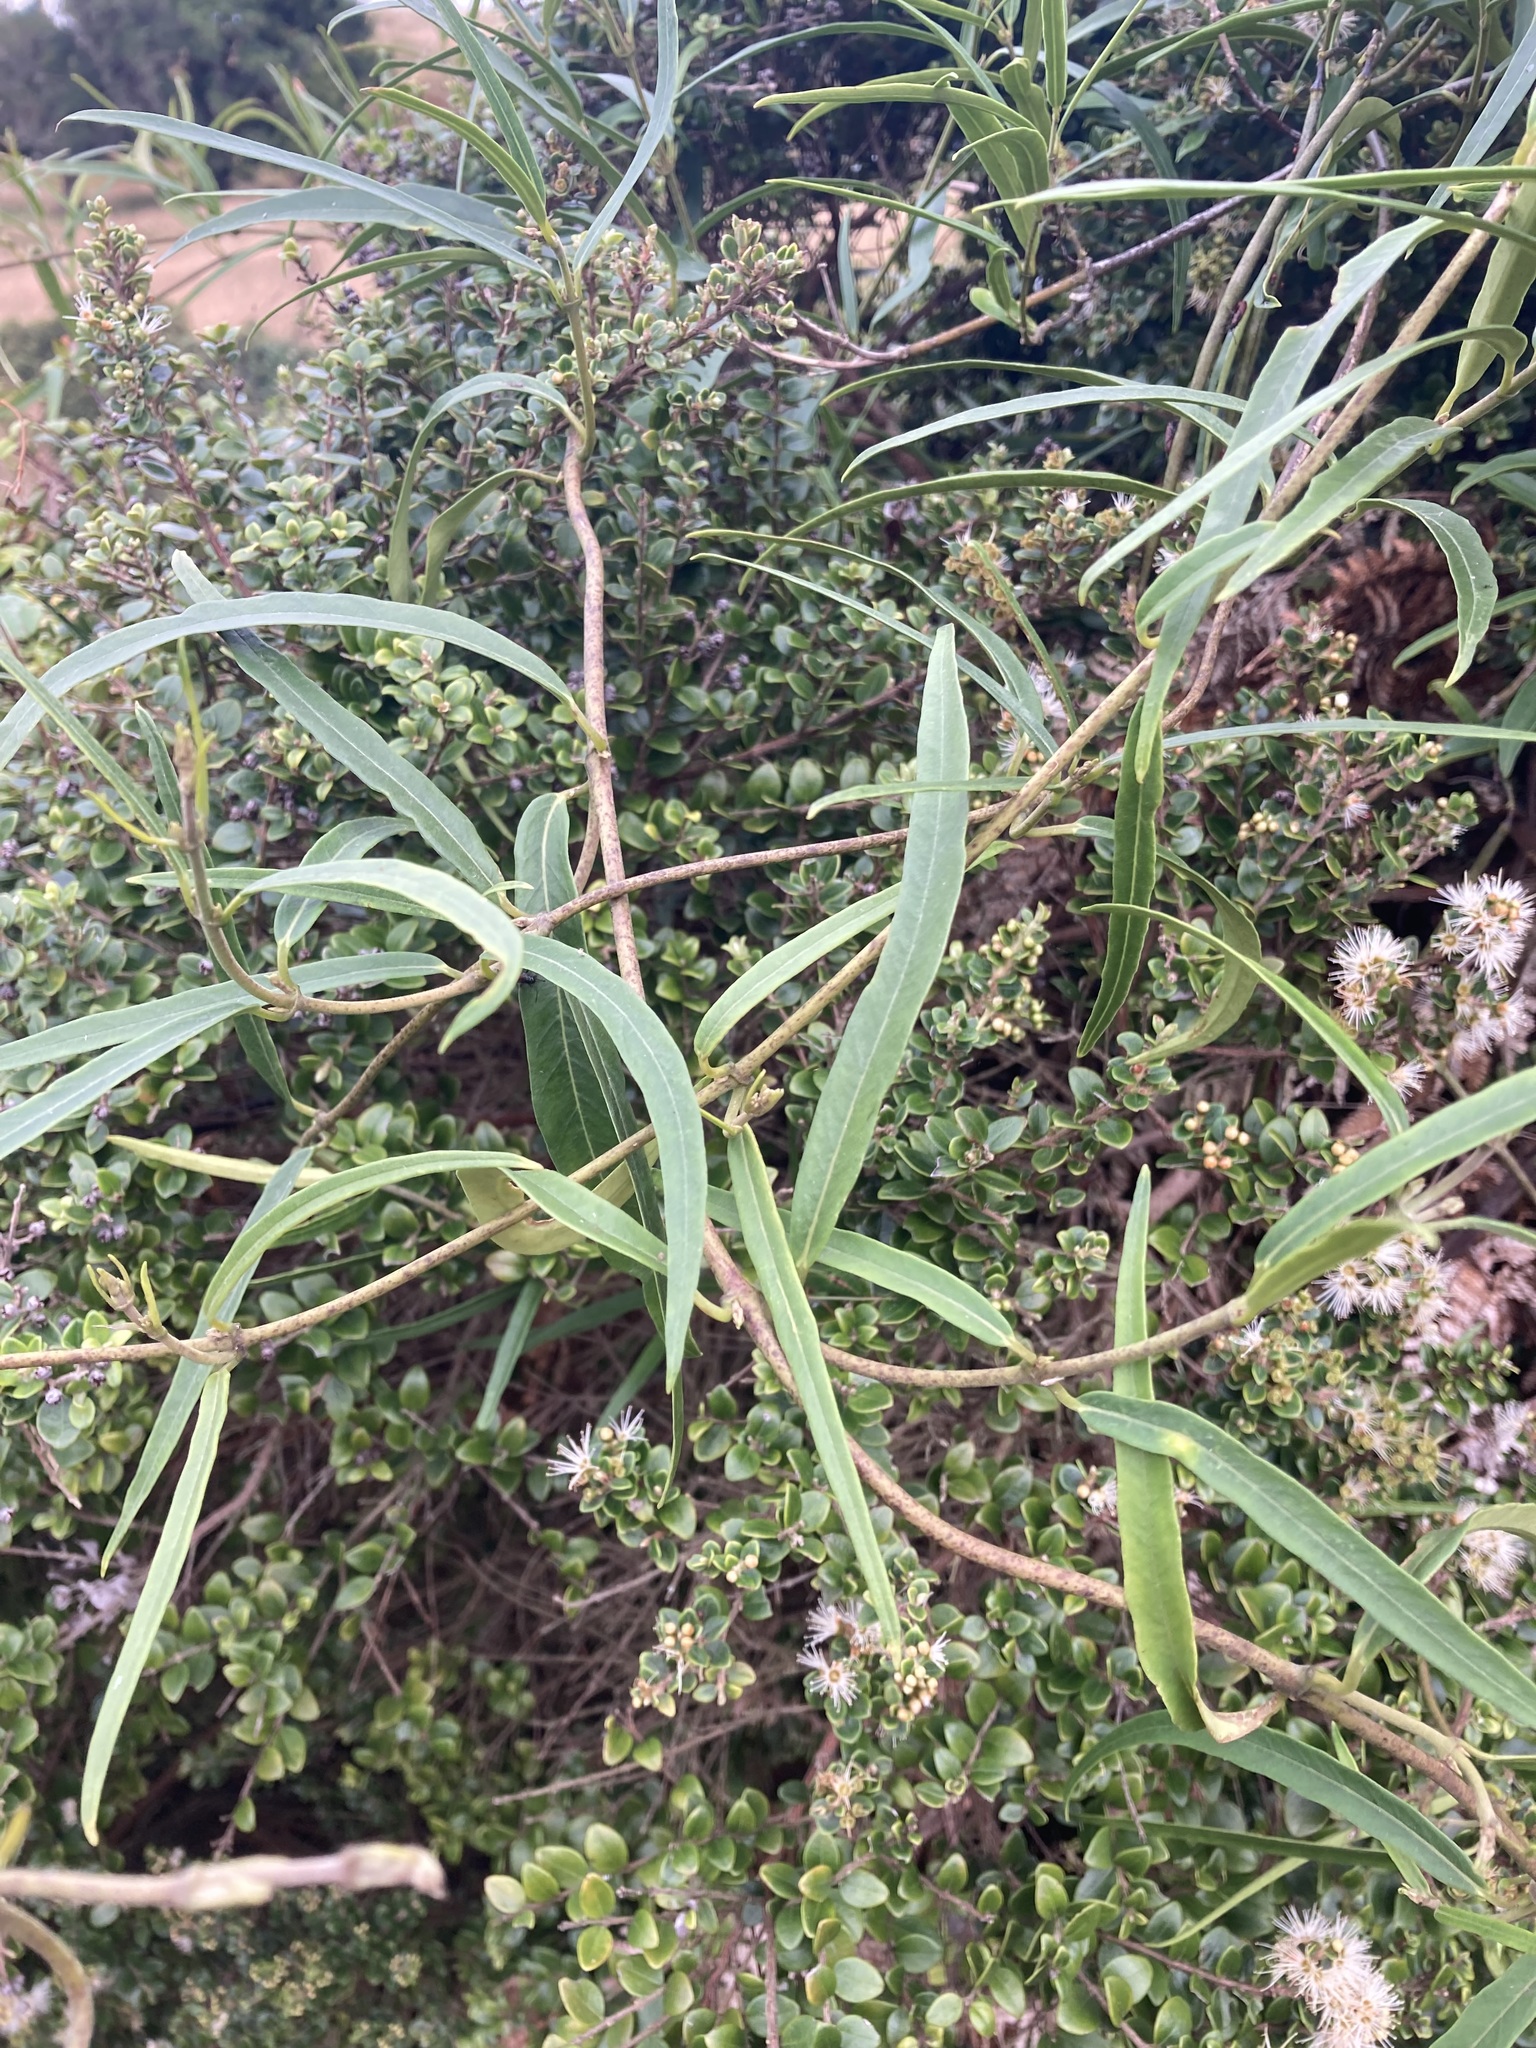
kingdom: Plantae
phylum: Tracheophyta
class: Magnoliopsida
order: Gentianales
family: Apocynaceae
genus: Parsonsia
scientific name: Parsonsia capsularis
